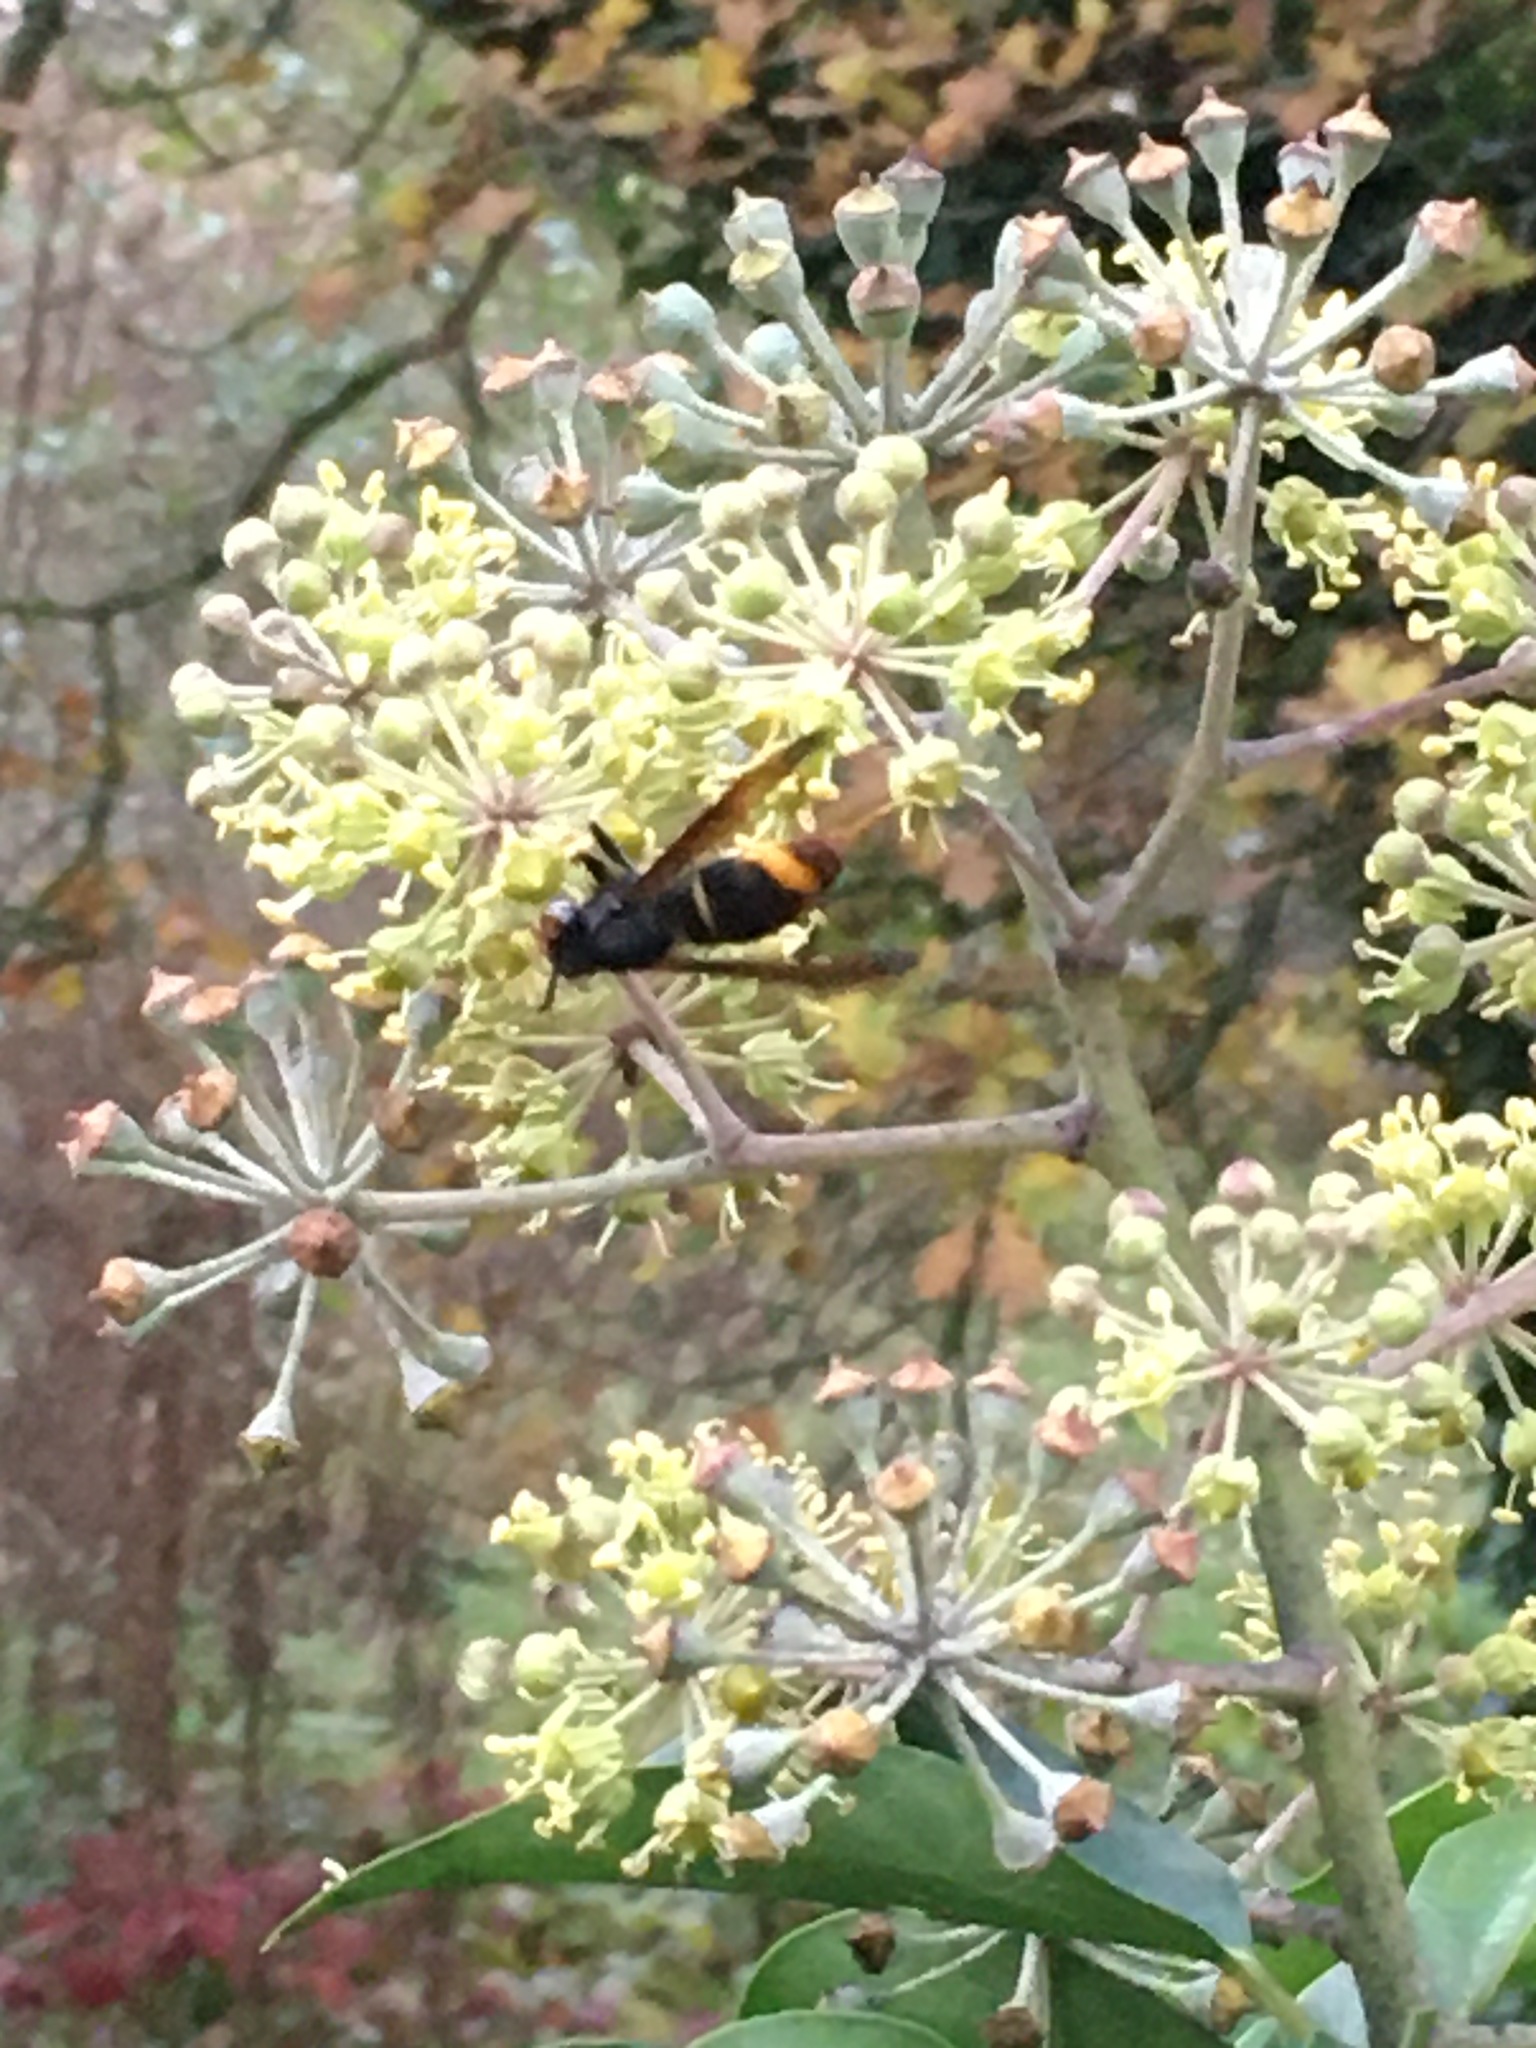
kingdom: Animalia
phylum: Arthropoda
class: Insecta
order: Hymenoptera
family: Vespidae
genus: Vespa
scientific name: Vespa velutina
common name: Asian hornet
